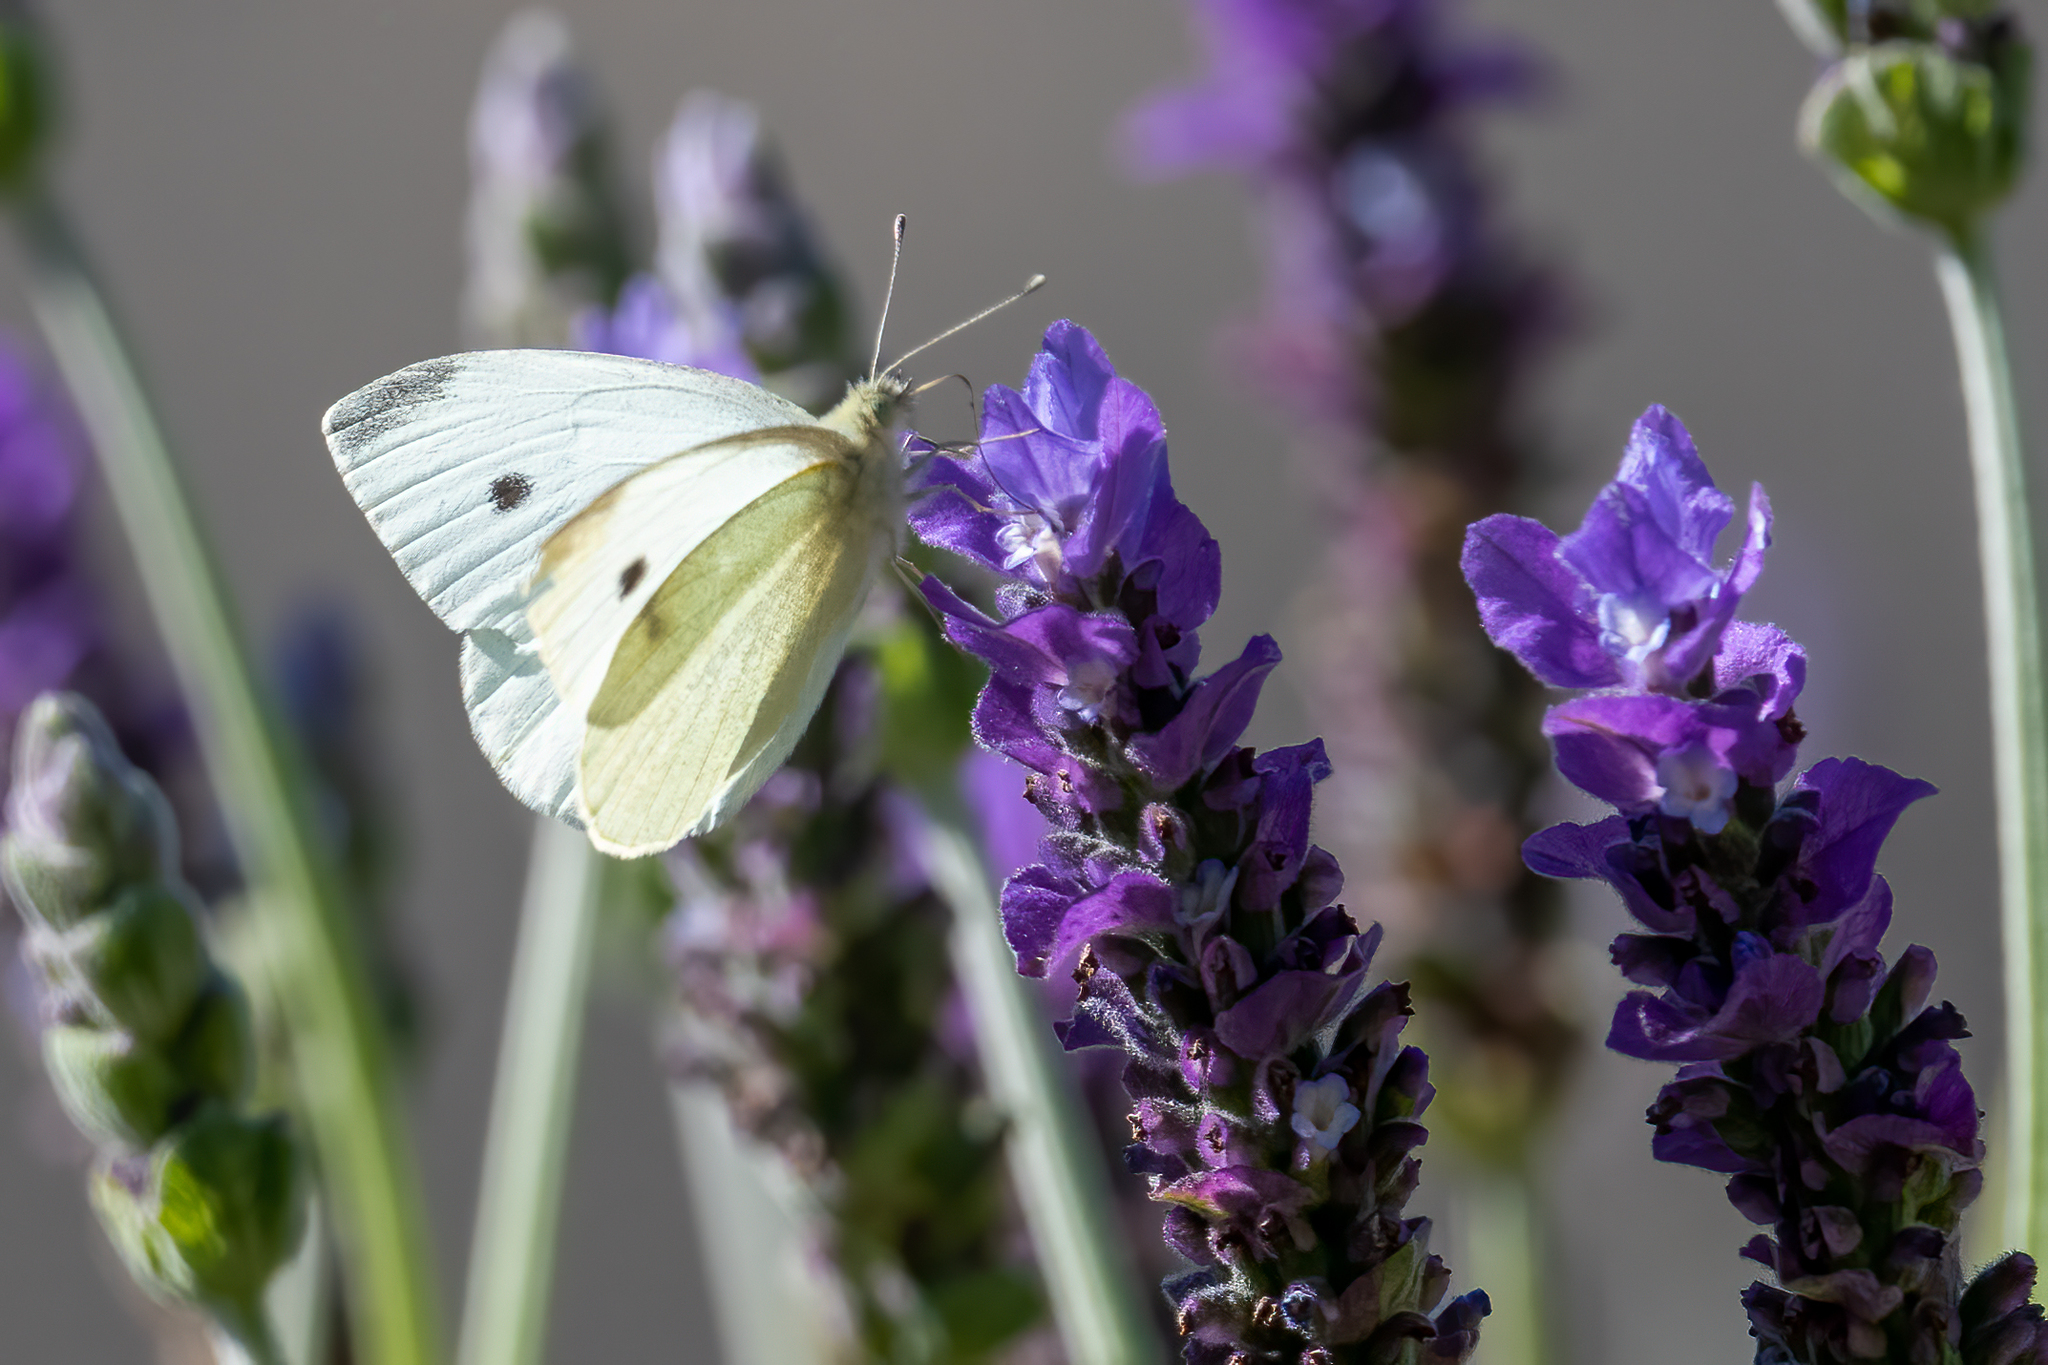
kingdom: Animalia
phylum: Arthropoda
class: Insecta
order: Lepidoptera
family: Pieridae
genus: Pieris
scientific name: Pieris rapae
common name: Small white
